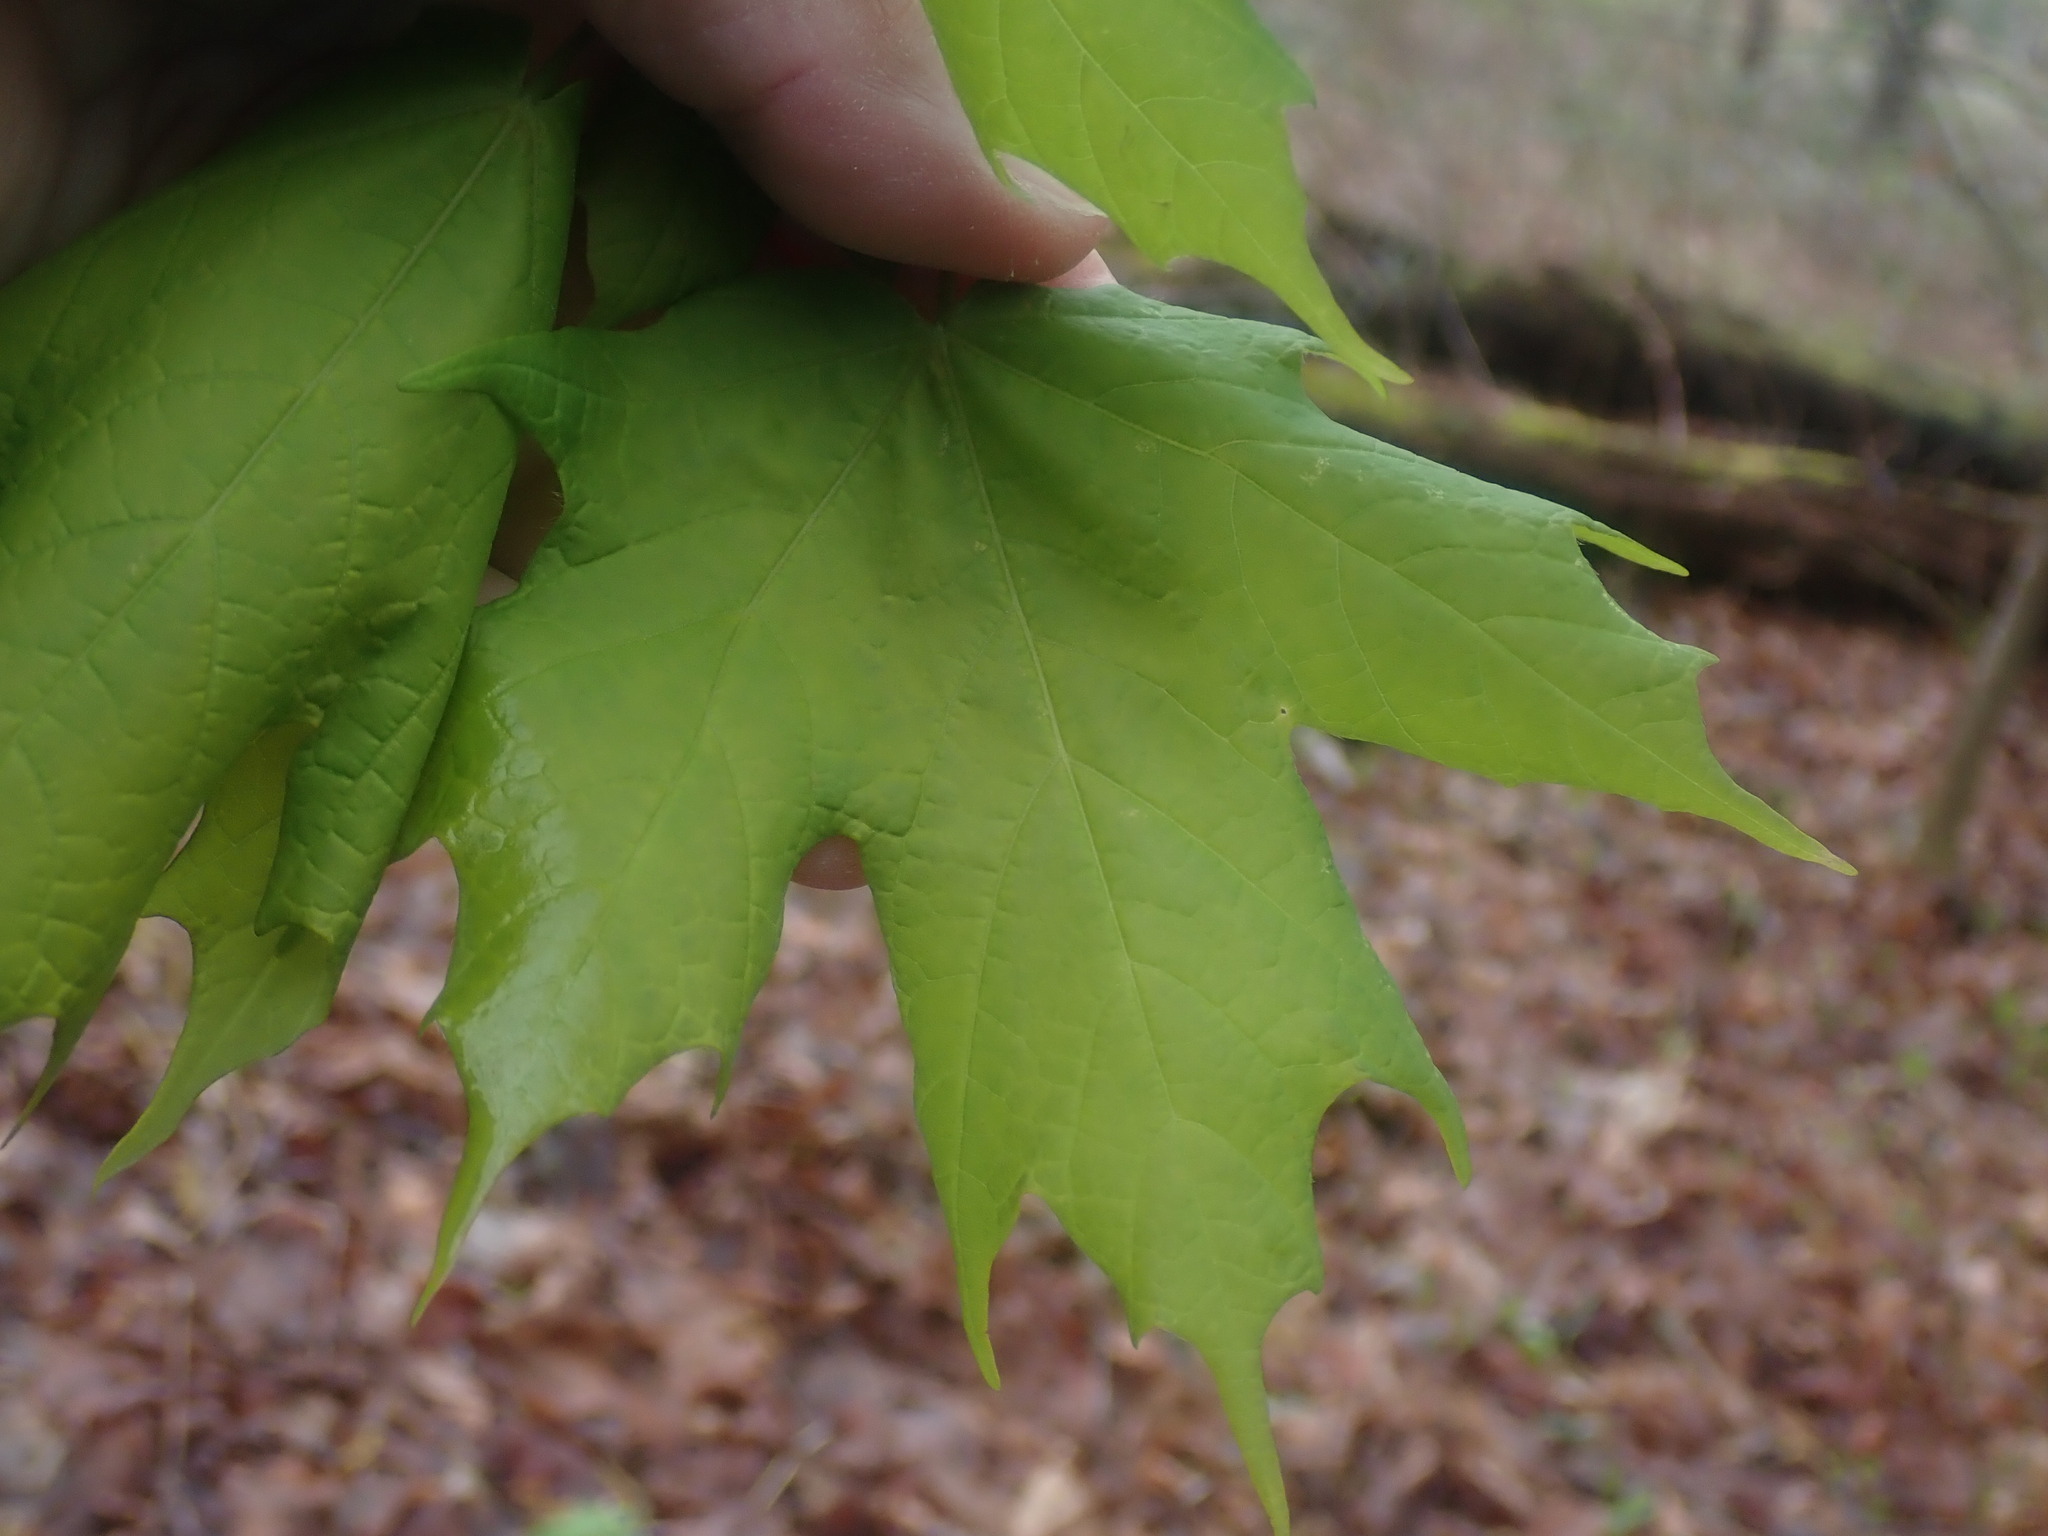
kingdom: Plantae
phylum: Tracheophyta
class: Magnoliopsida
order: Sapindales
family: Sapindaceae
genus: Acer
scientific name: Acer saccharum
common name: Sugar maple
